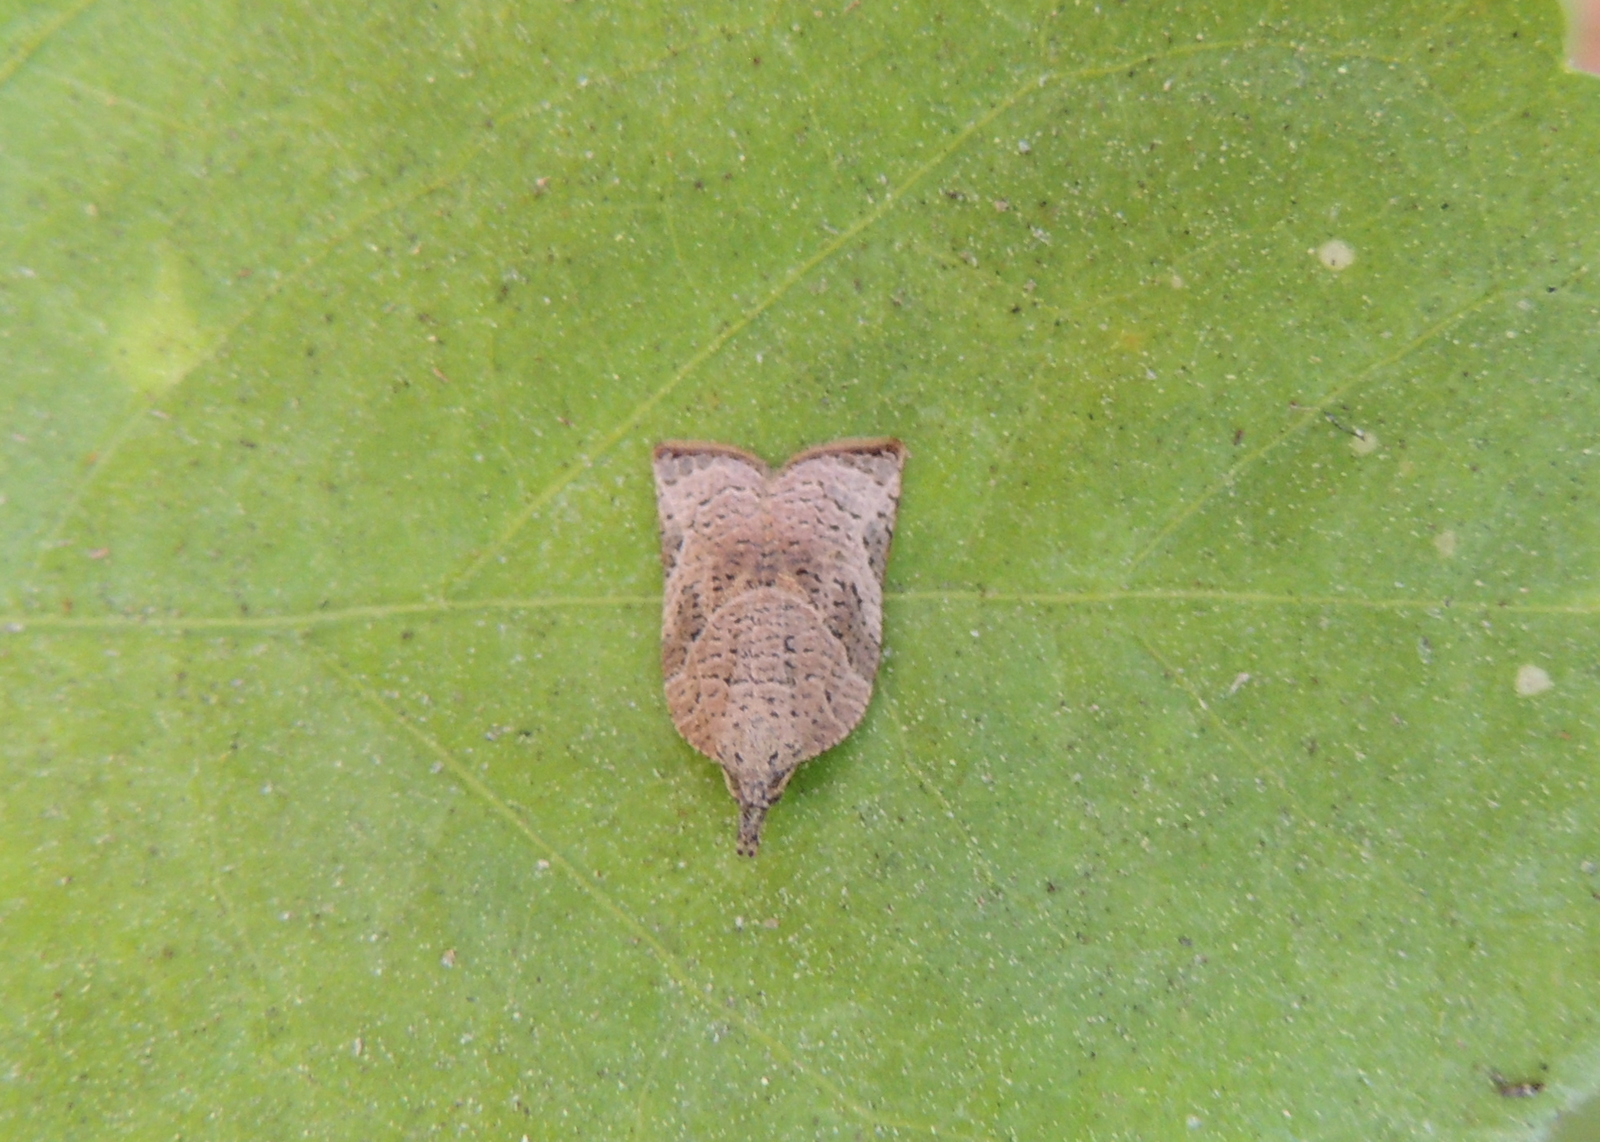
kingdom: Animalia
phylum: Arthropoda
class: Insecta
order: Lepidoptera
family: Tortricidae
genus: Platynota
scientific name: Platynota rostrana
